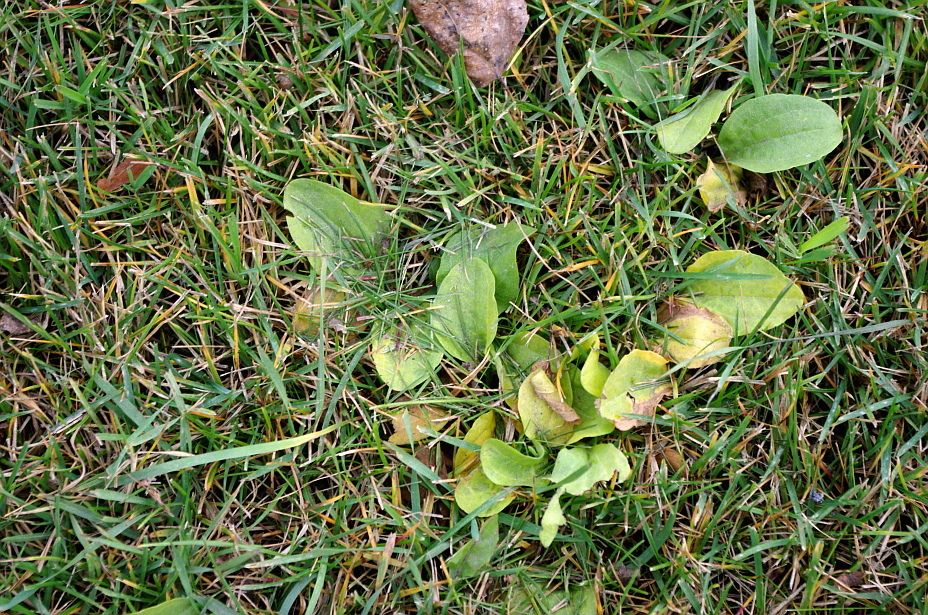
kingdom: Plantae
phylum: Tracheophyta
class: Magnoliopsida
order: Lamiales
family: Plantaginaceae
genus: Plantago
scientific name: Plantago major
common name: Common plantain
